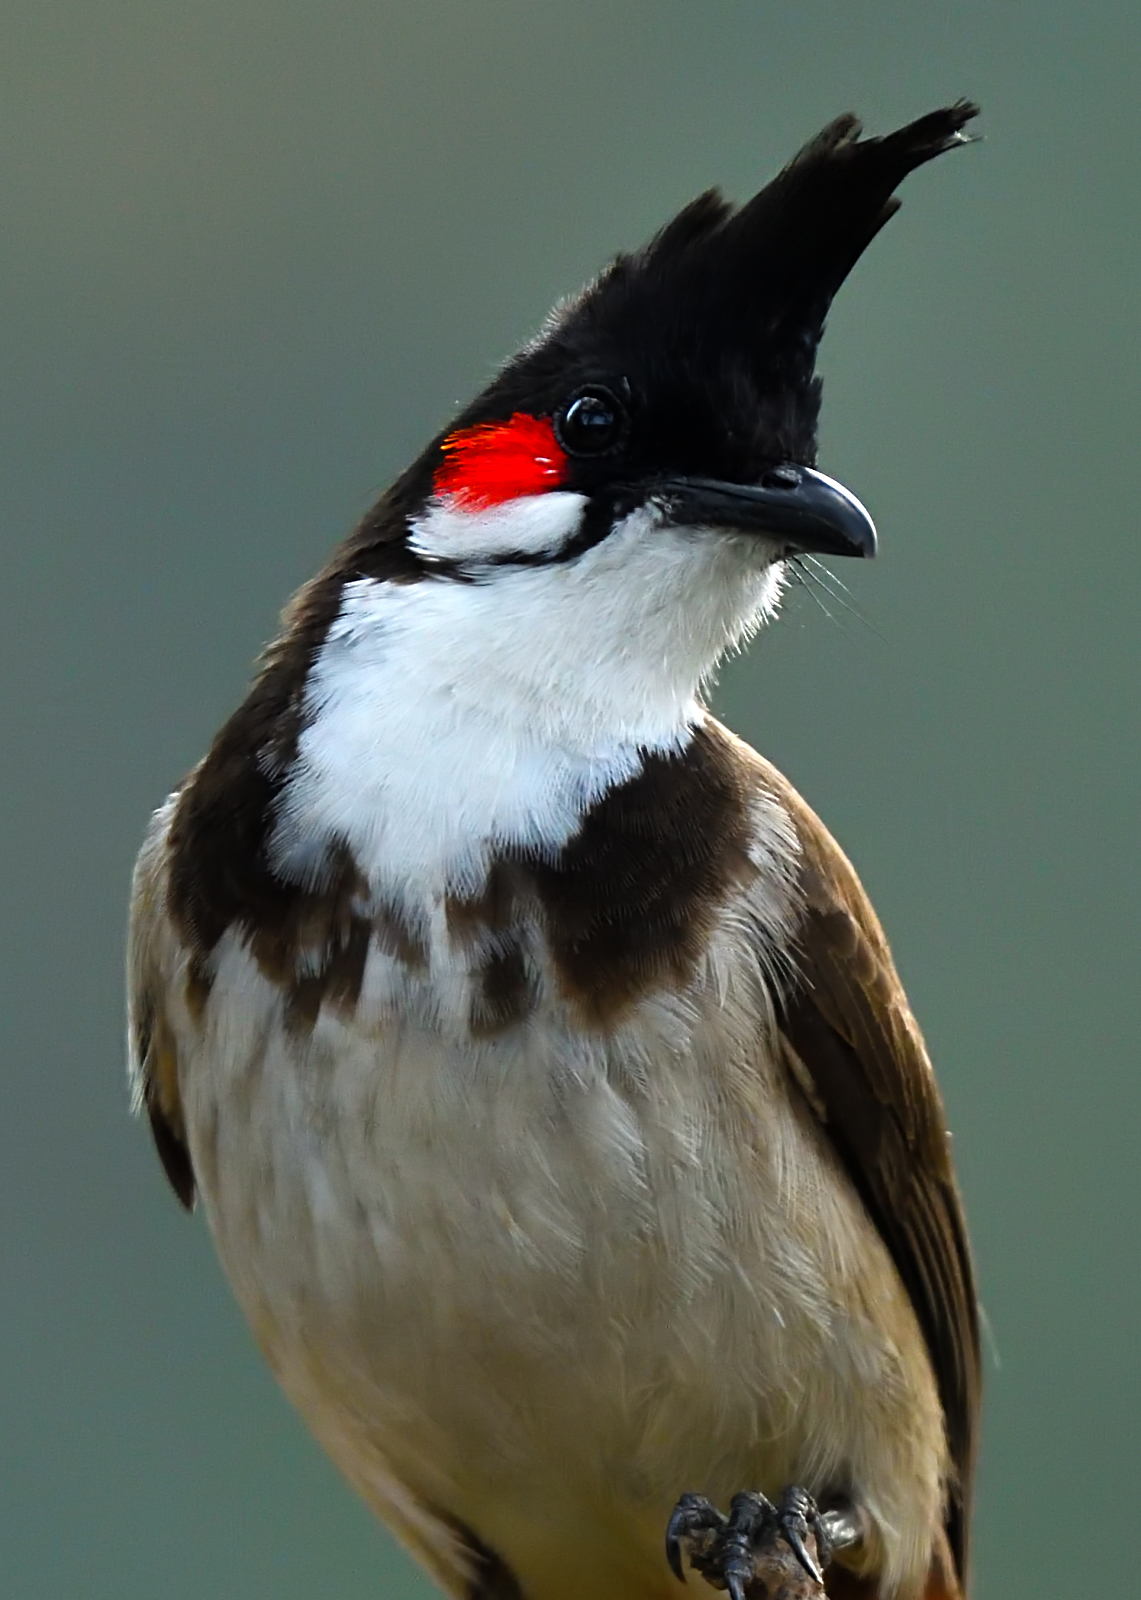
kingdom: Animalia
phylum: Chordata
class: Aves
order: Passeriformes
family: Pycnonotidae
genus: Pycnonotus
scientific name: Pycnonotus jocosus
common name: Red-whiskered bulbul
